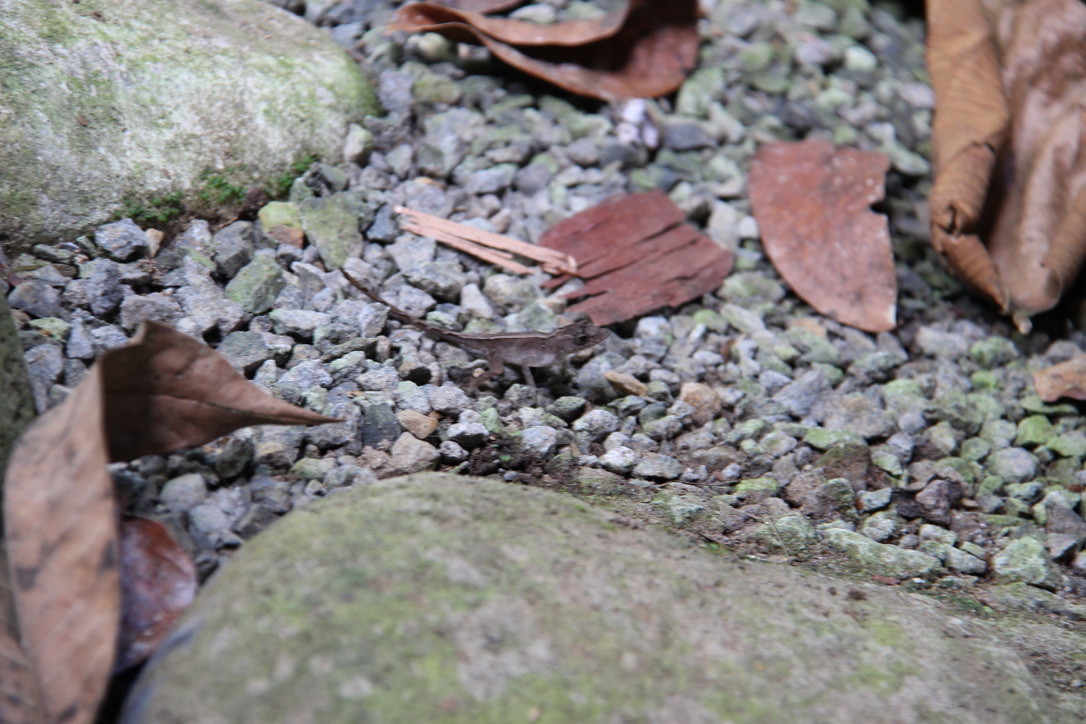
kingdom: Animalia
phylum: Chordata
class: Squamata
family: Dactyloidae
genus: Anolis
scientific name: Anolis humilis
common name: Humble anole
